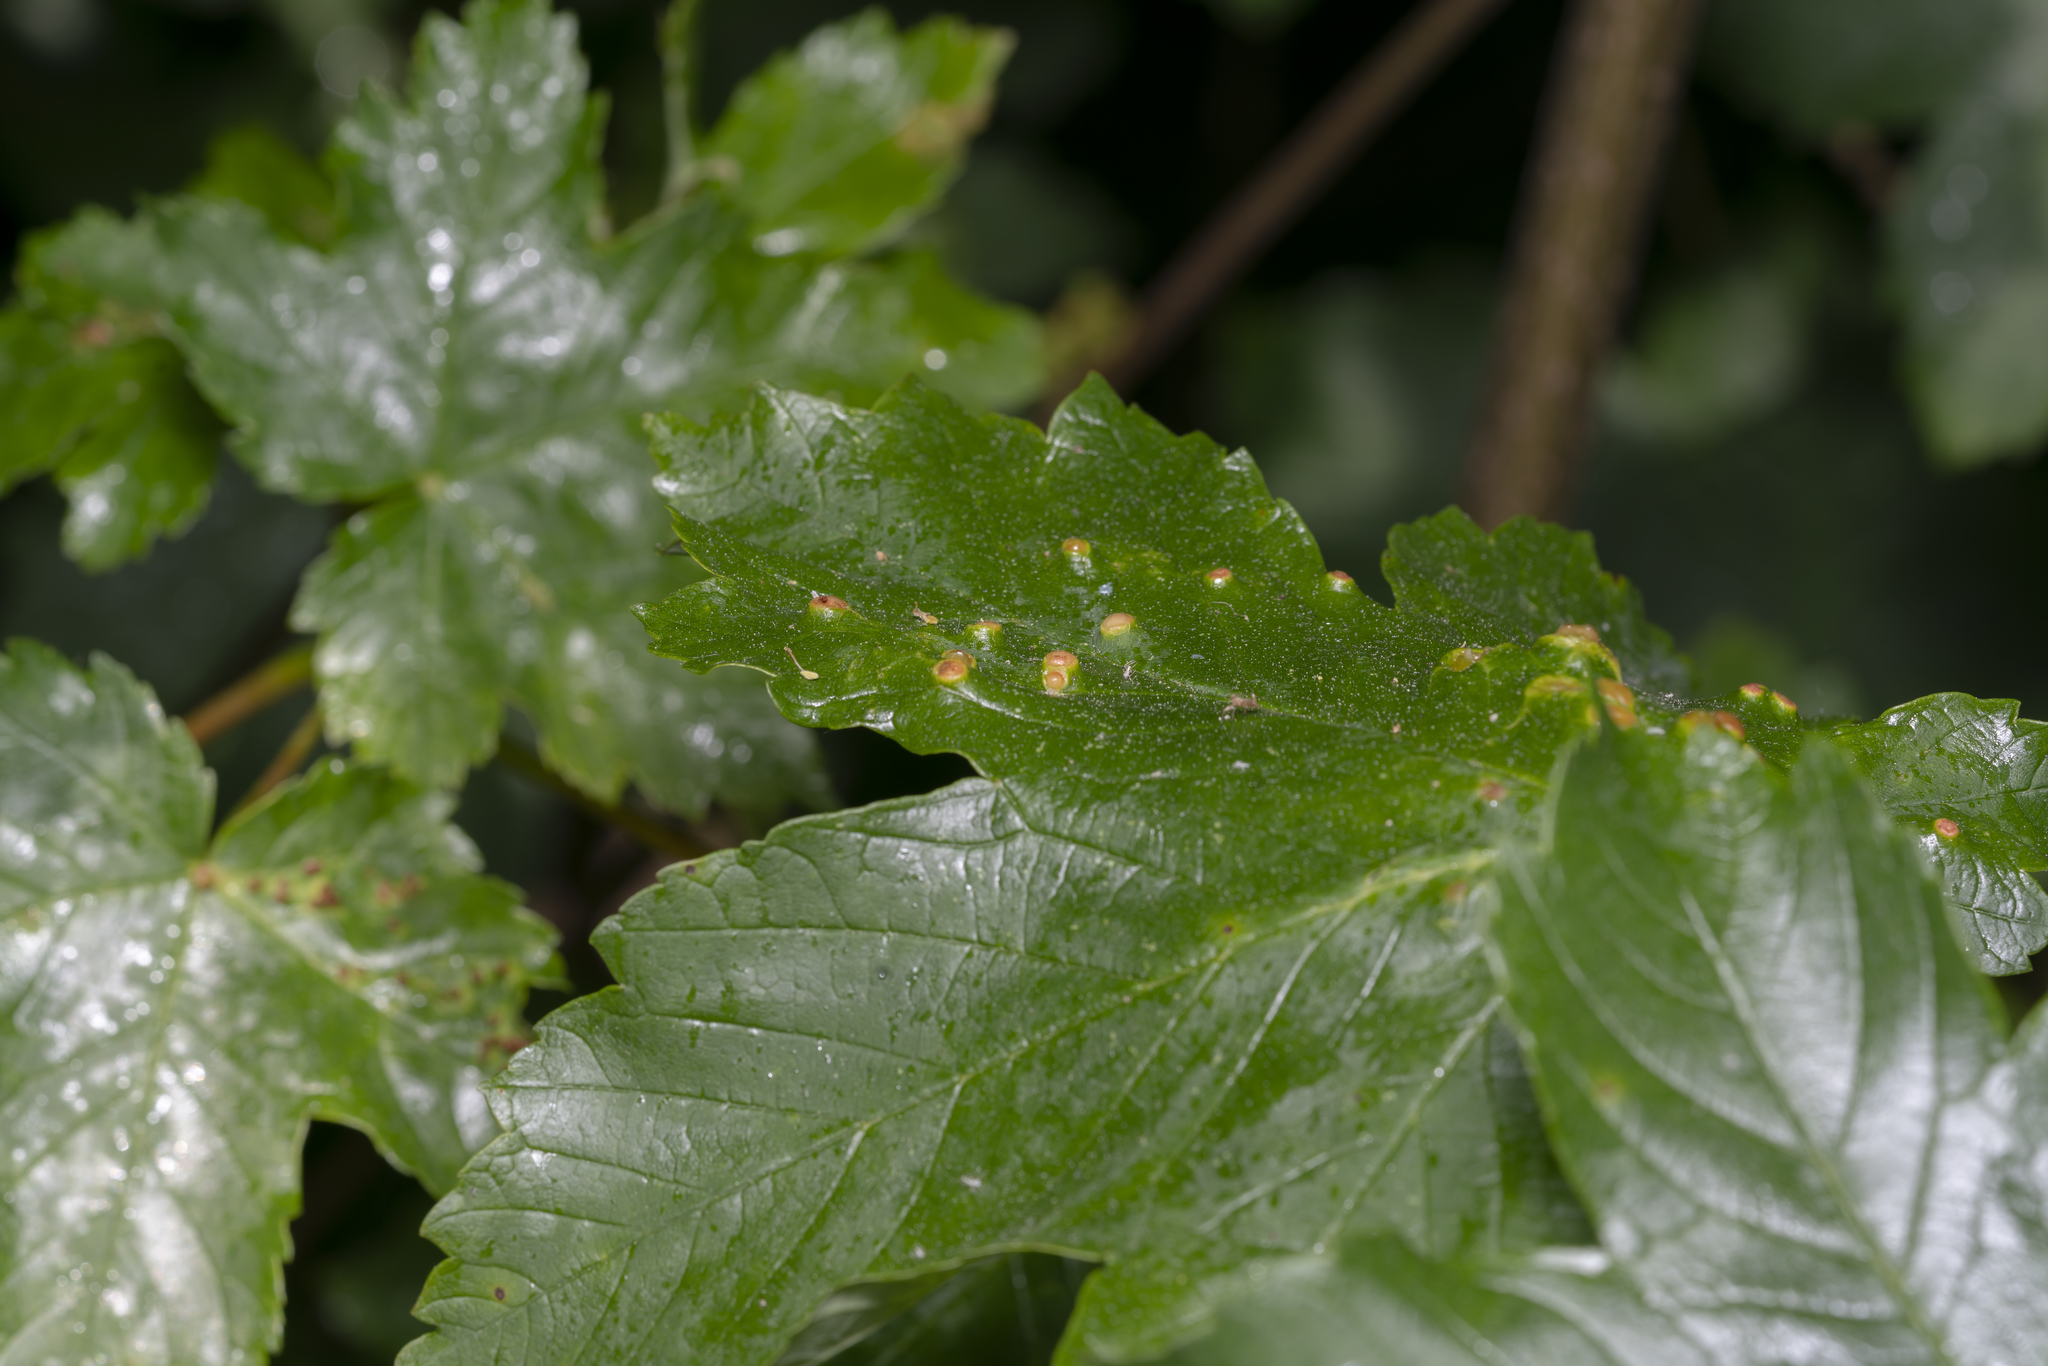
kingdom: Animalia
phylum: Arthropoda
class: Insecta
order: Hymenoptera
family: Cynipidae
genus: Pediaspis
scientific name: Pediaspis aceris
